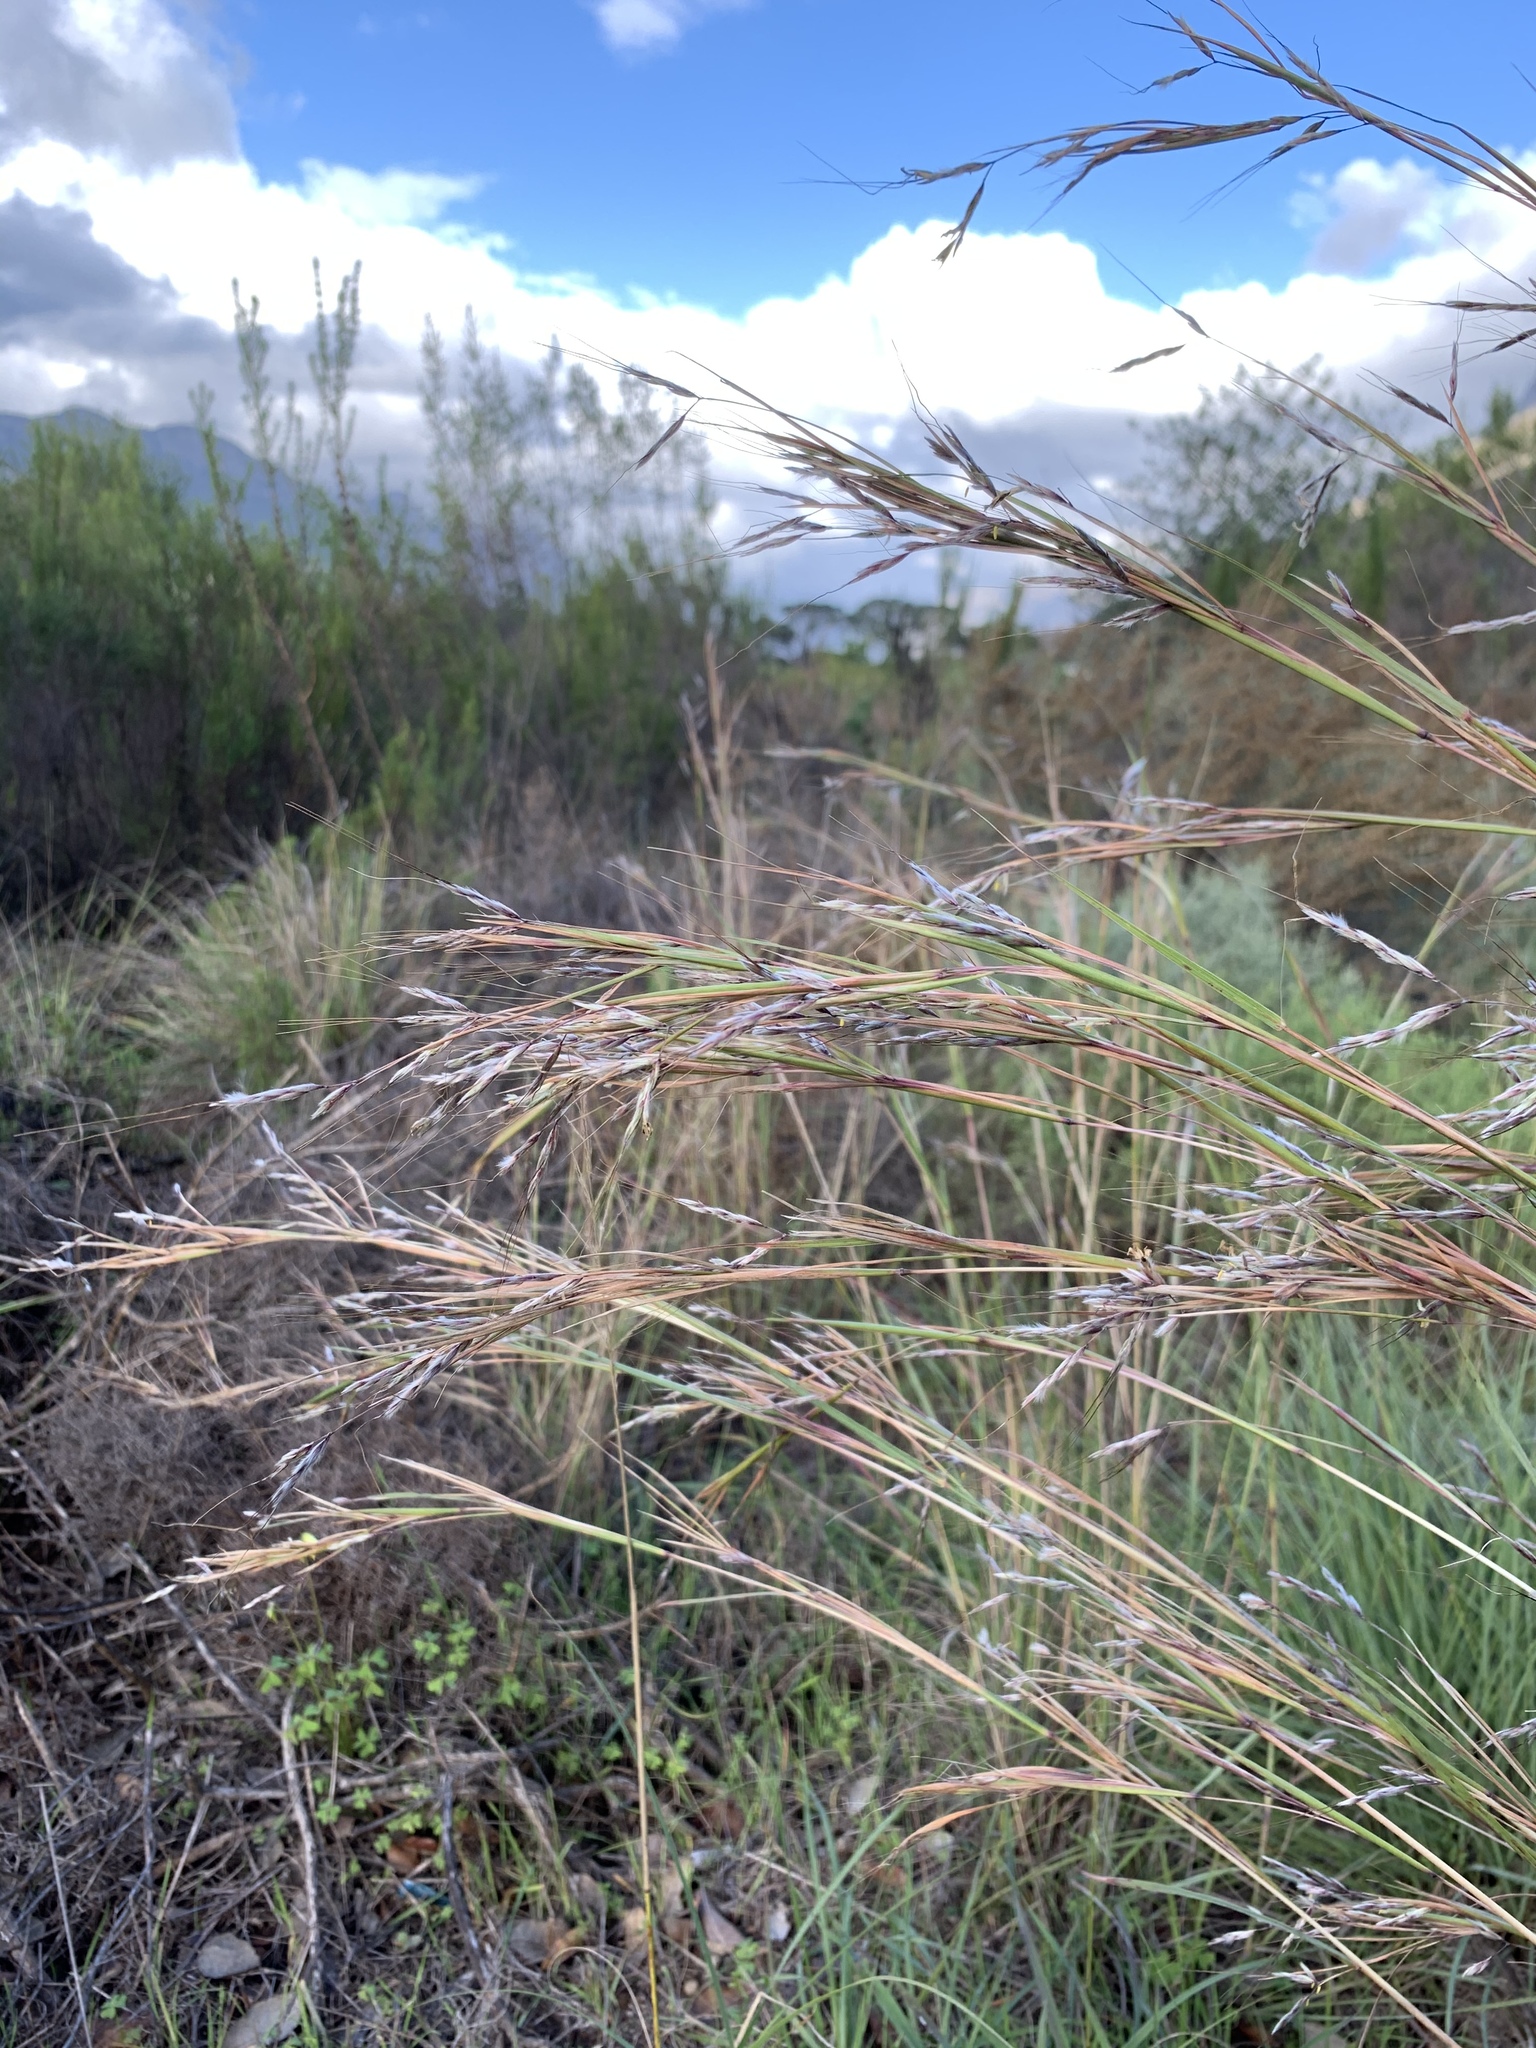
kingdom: Plantae
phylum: Tracheophyta
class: Liliopsida
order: Poales
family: Poaceae
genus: Hyparrhenia
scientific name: Hyparrhenia hirta
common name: Thatching grass
